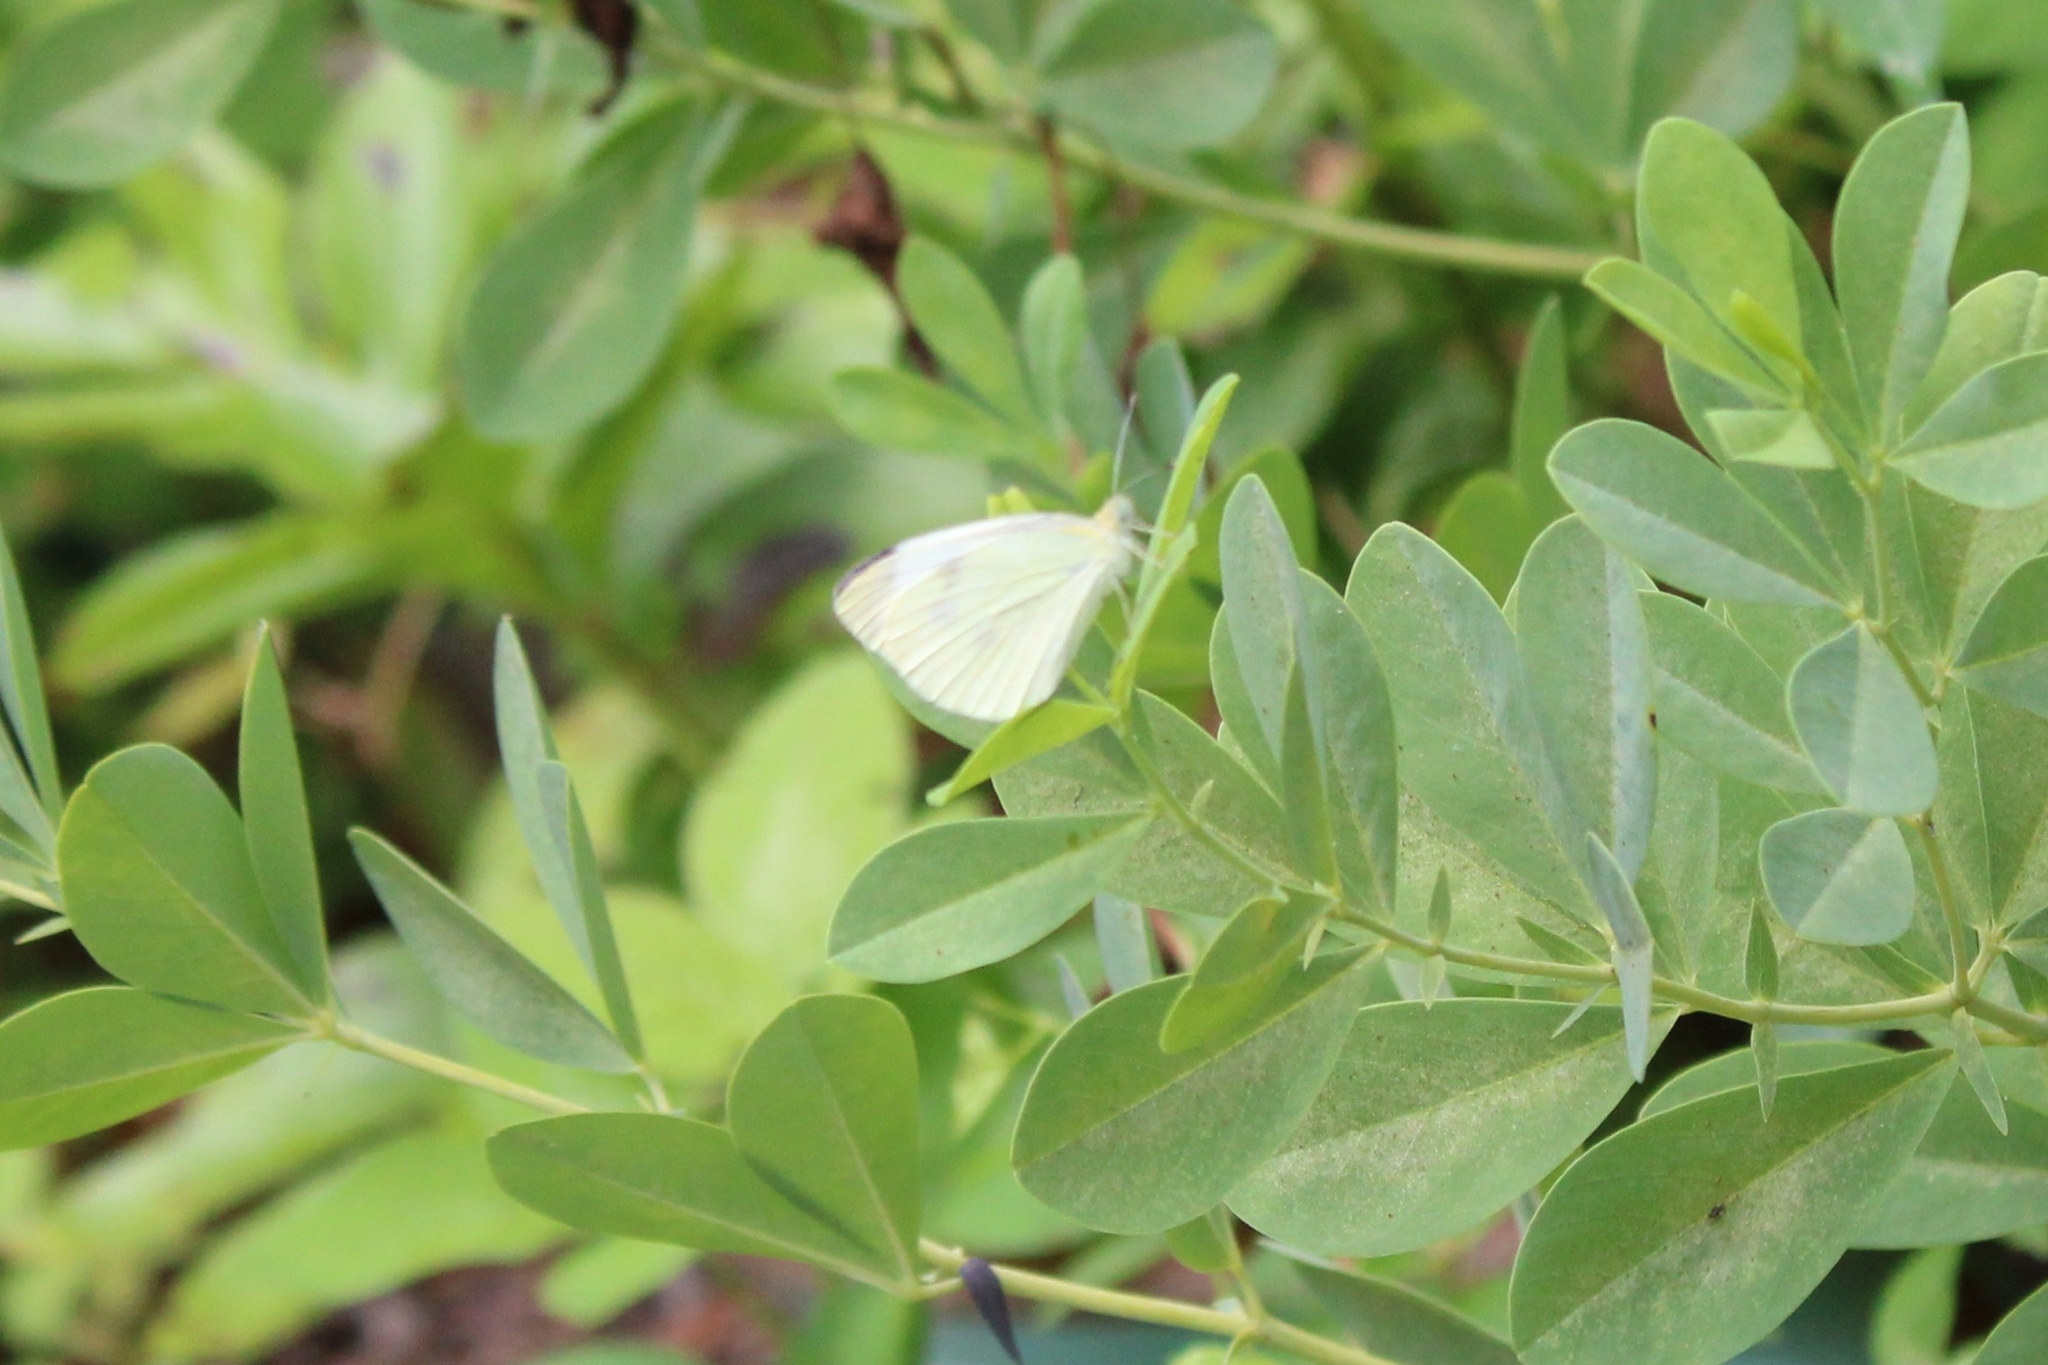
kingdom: Animalia
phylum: Arthropoda
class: Insecta
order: Lepidoptera
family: Pieridae
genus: Pieris
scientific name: Pieris rapae
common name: Small white
